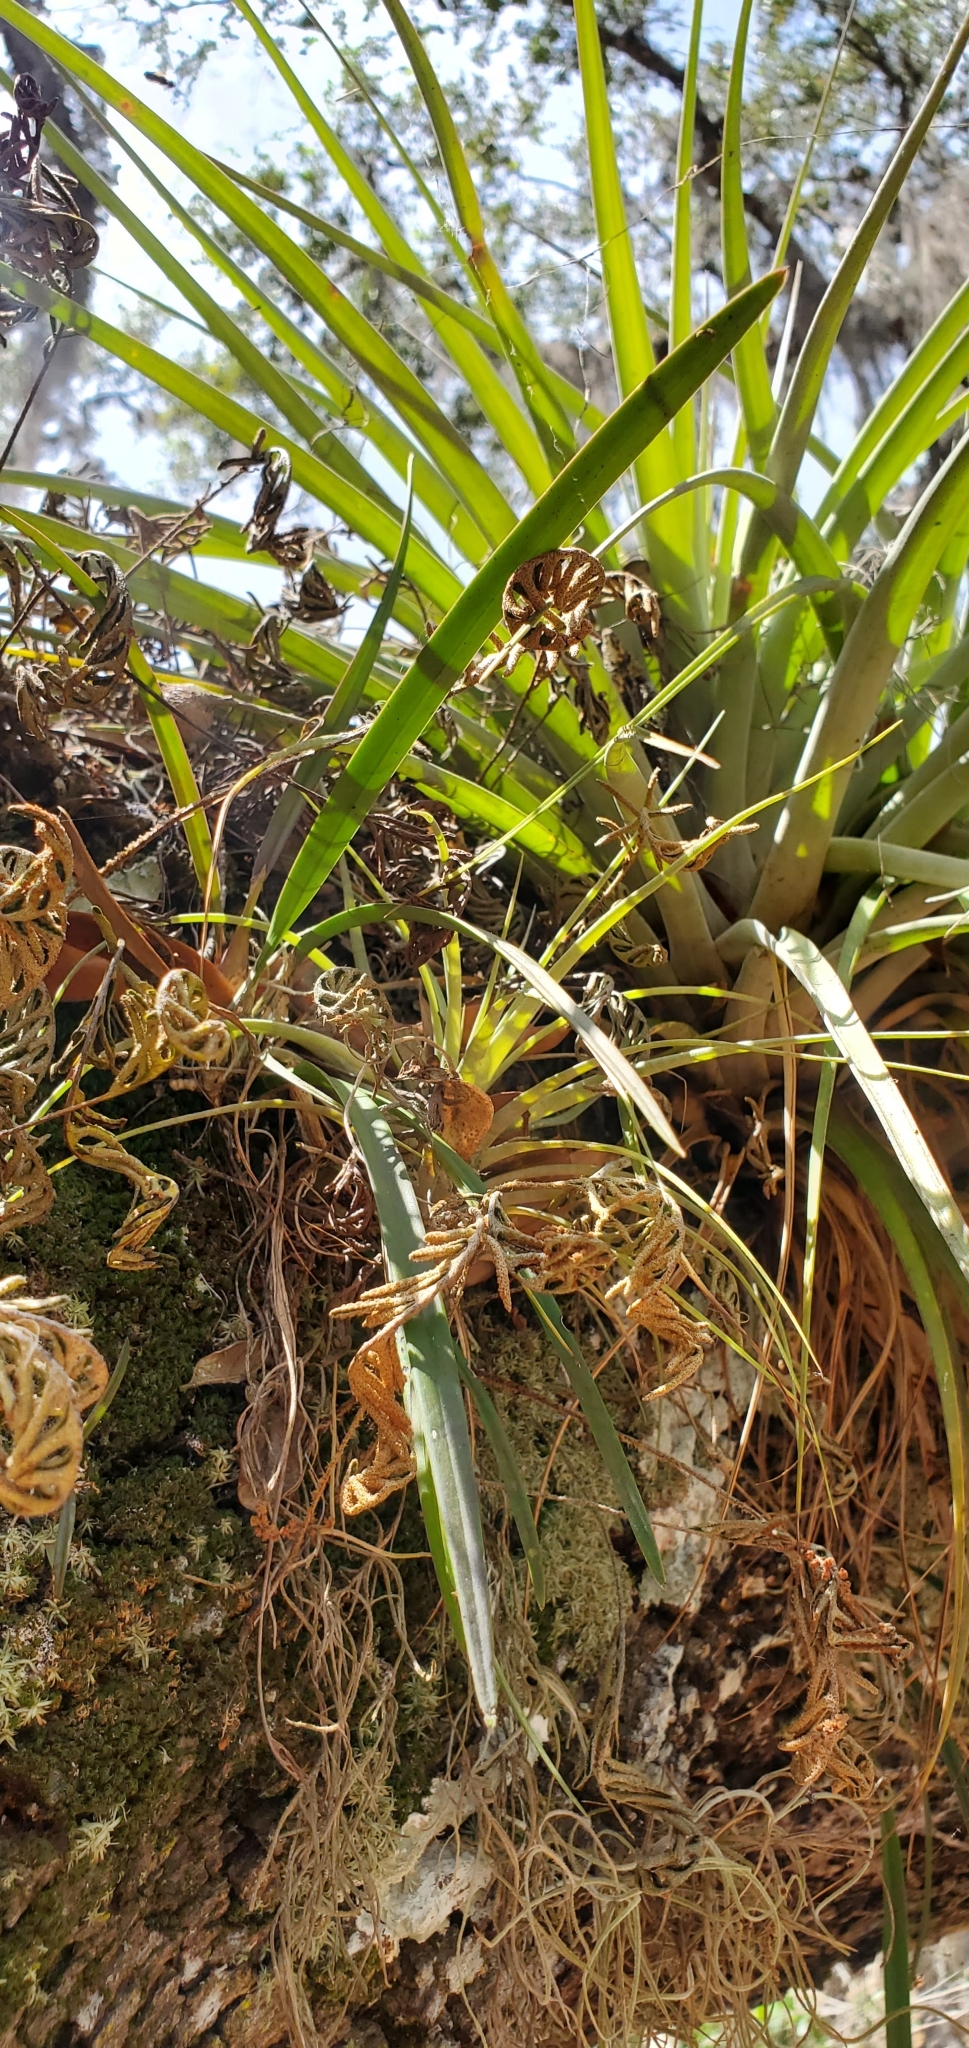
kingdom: Plantae
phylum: Tracheophyta
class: Liliopsida
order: Asparagales
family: Orchidaceae
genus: Encyclia
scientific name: Encyclia tampensis
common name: Florida butterfly orchid
